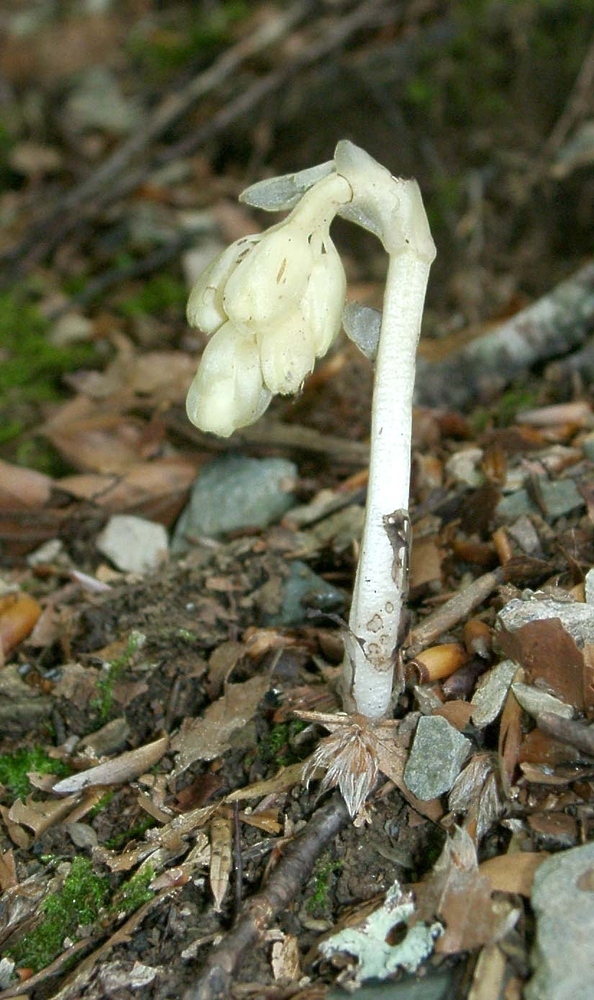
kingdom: Plantae
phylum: Tracheophyta
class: Magnoliopsida
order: Ericales
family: Ericaceae
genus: Hypopitys
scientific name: Hypopitys monotropa
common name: Yellow bird's-nest
